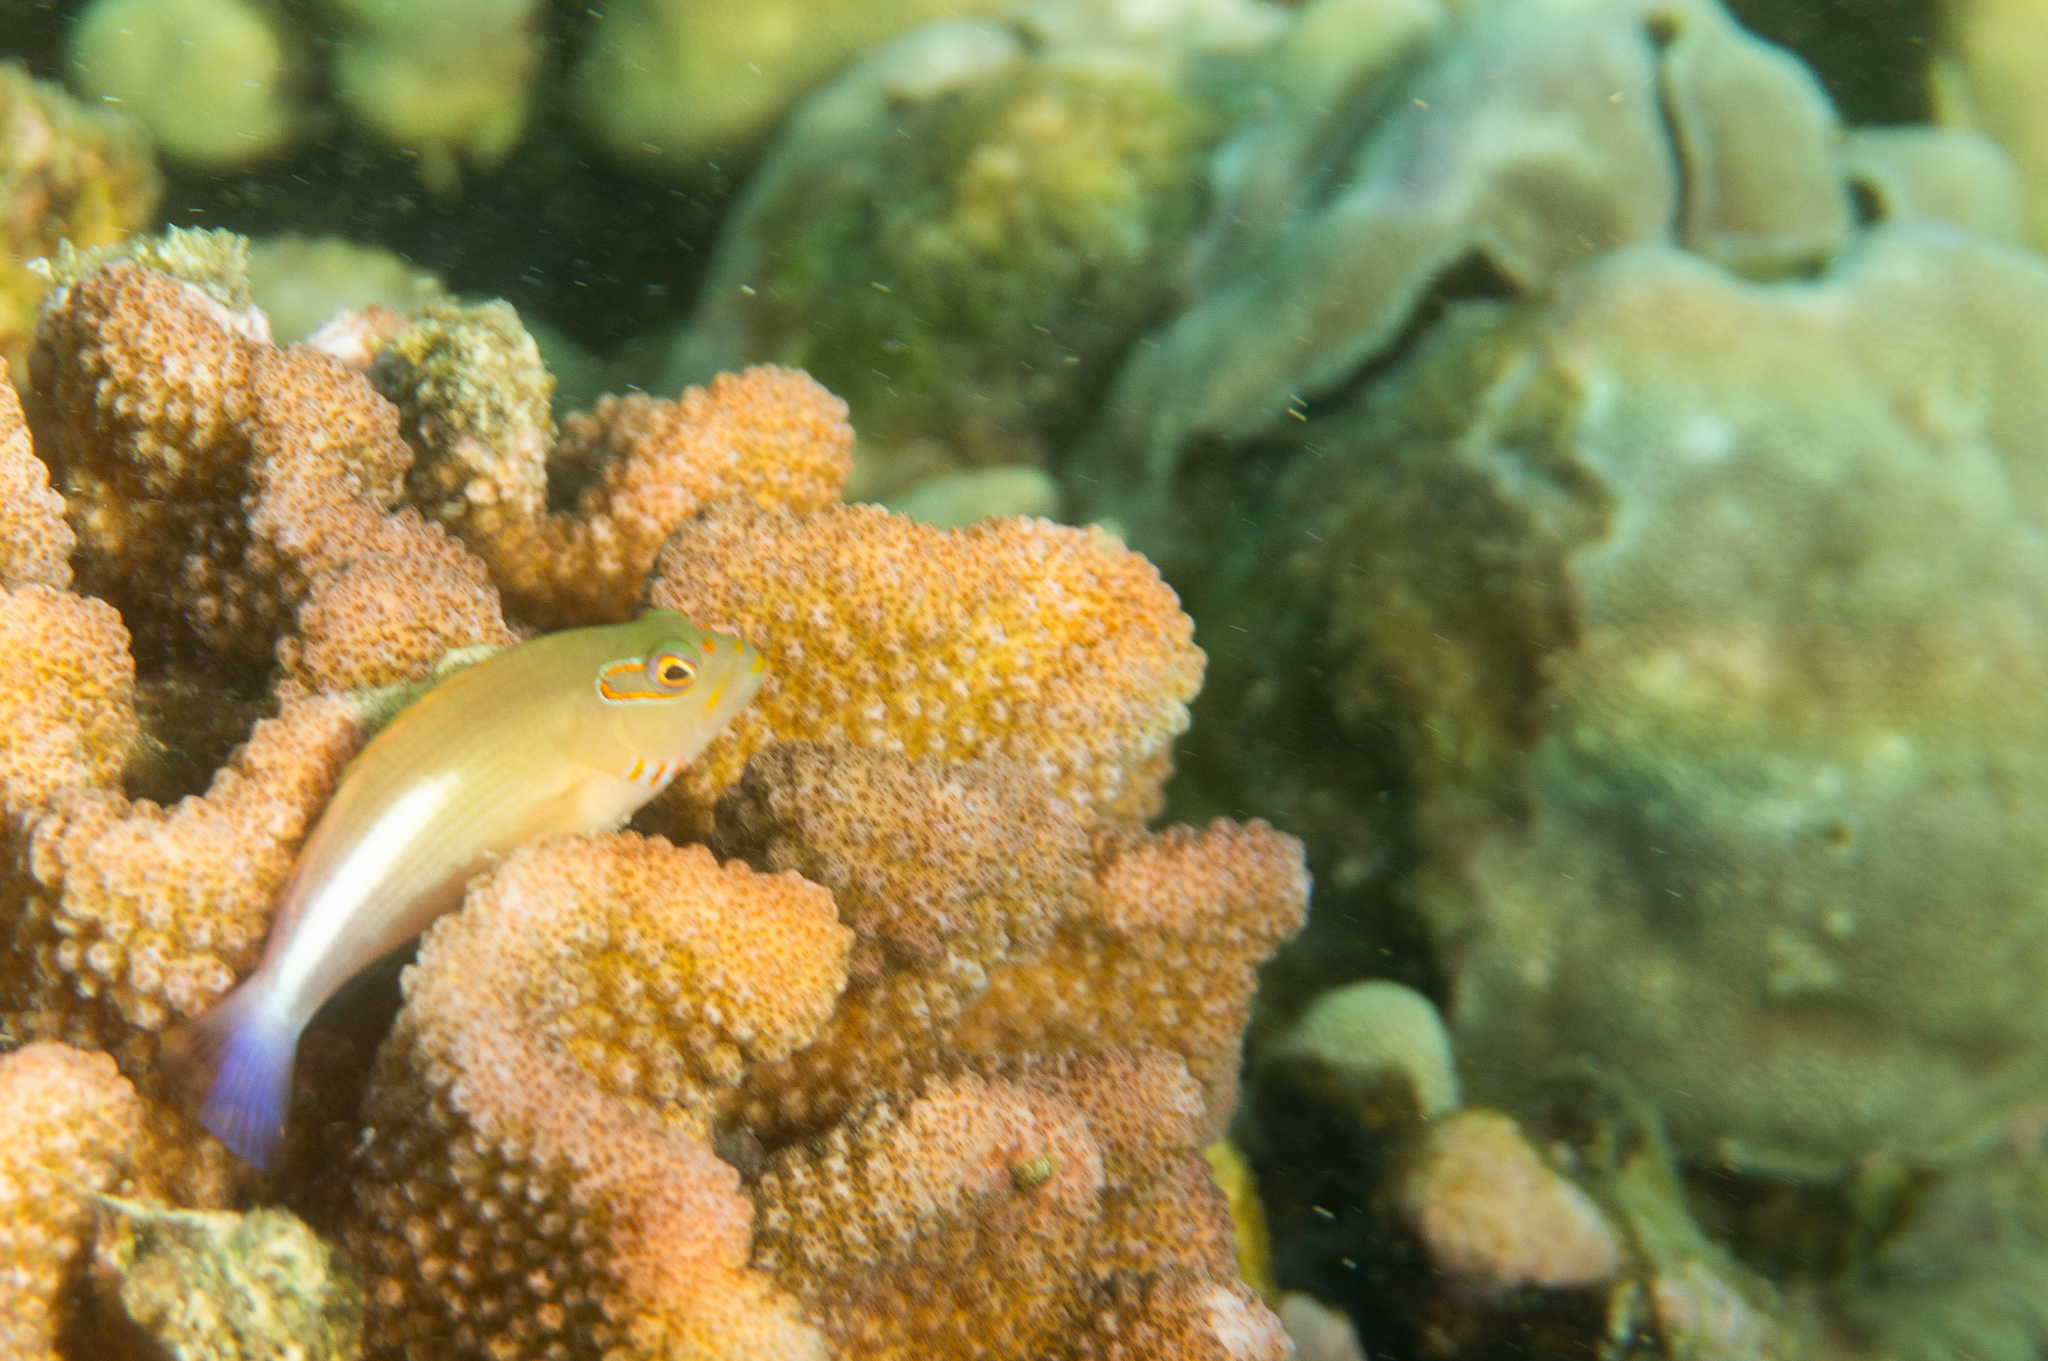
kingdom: Animalia
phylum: Chordata
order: Perciformes
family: Cirrhitidae
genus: Paracirrhites
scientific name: Paracirrhites arcatus
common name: Arc-eye hawkfish
